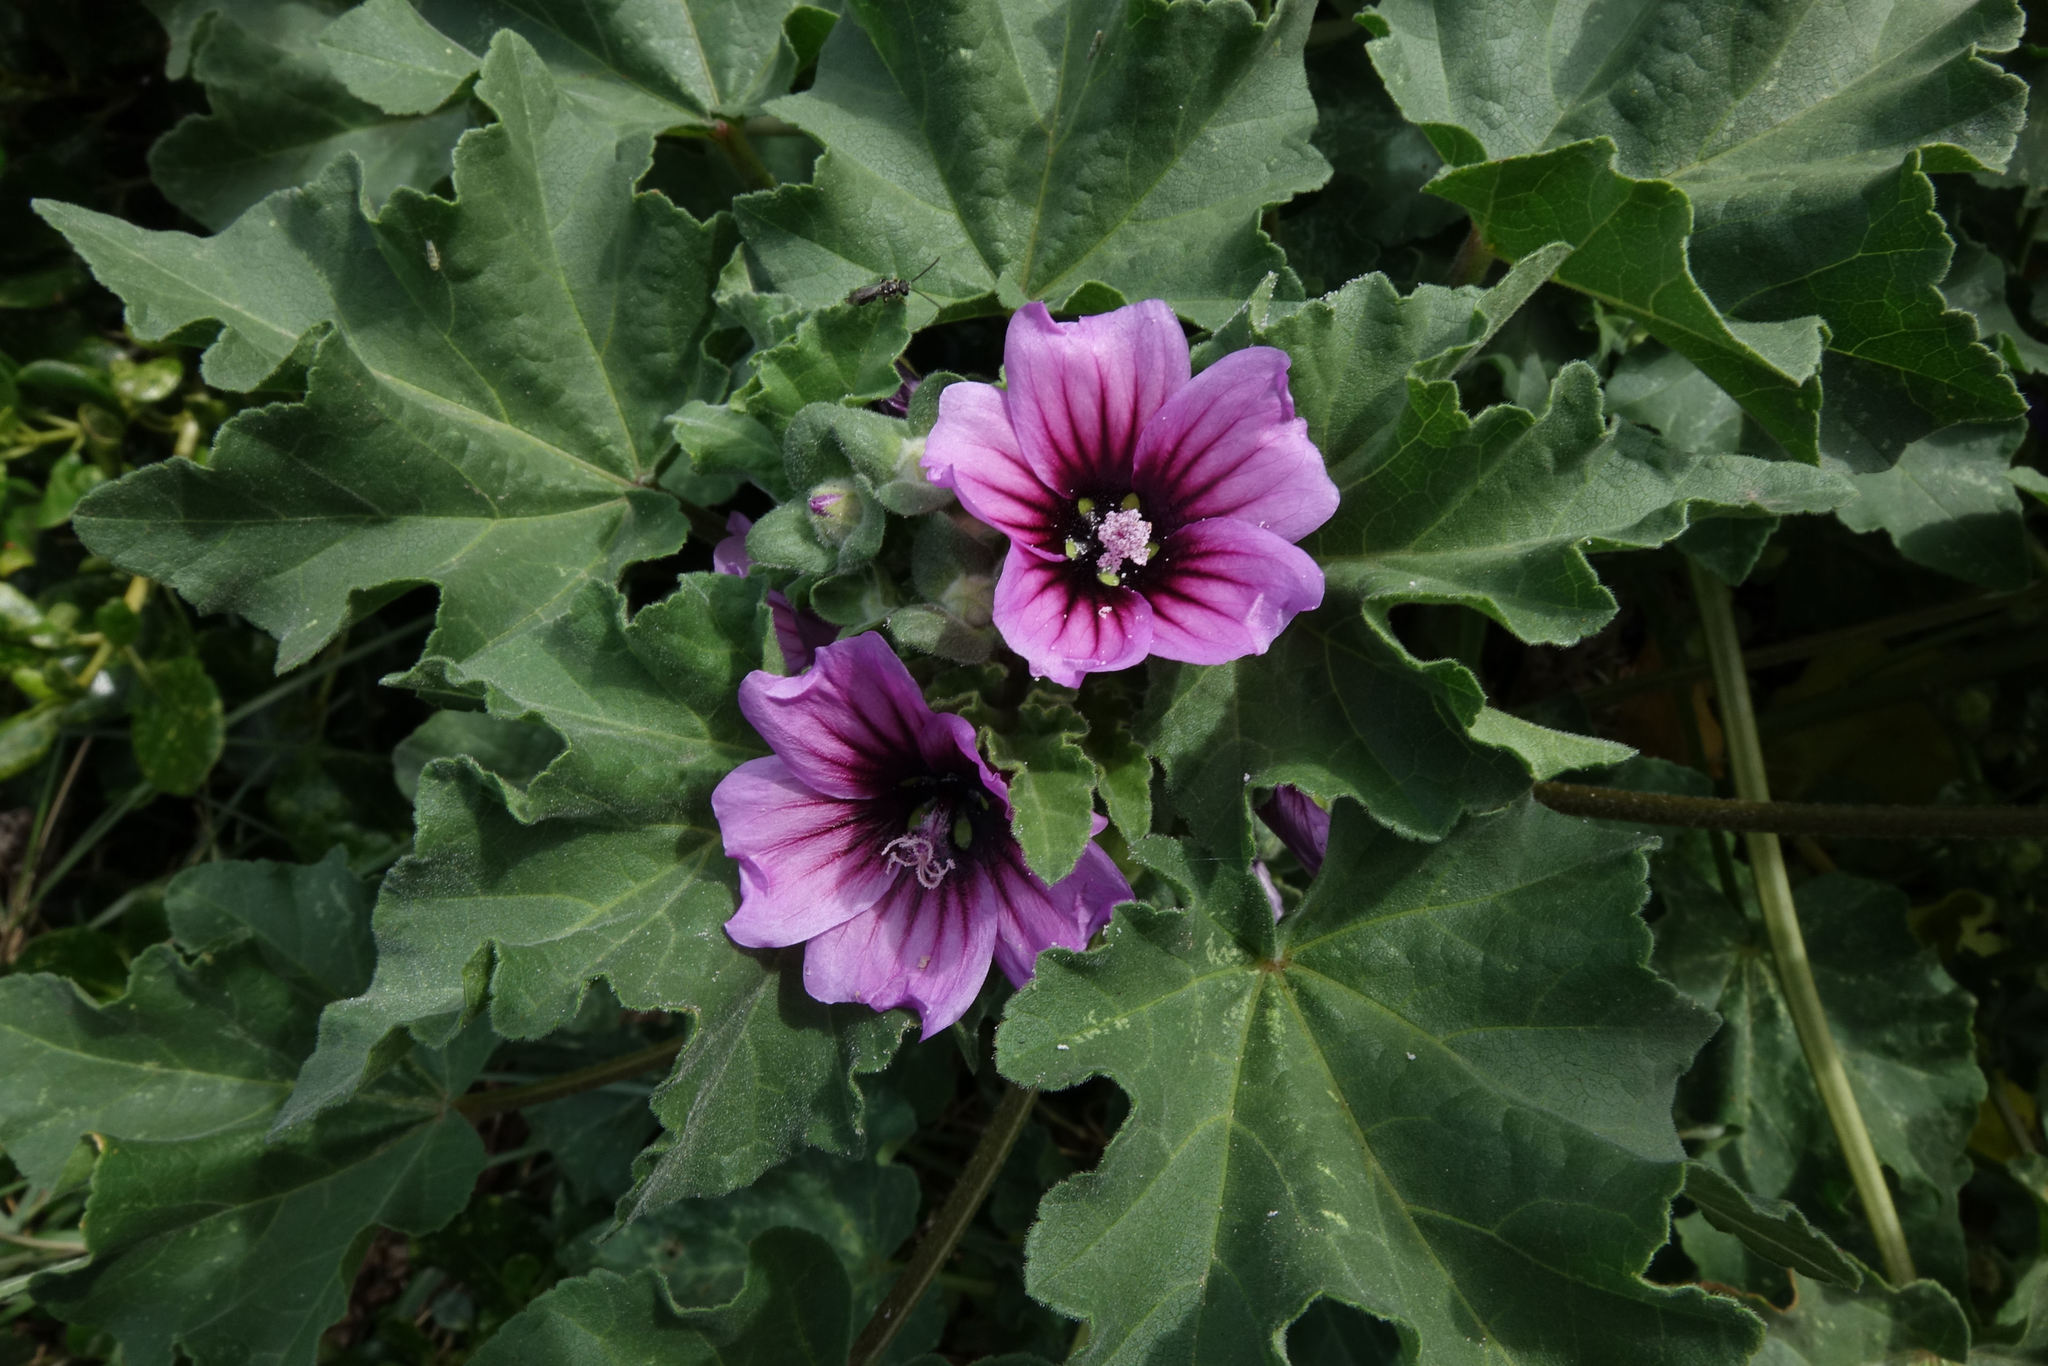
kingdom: Plantae
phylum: Tracheophyta
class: Magnoliopsida
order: Malvales
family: Malvaceae
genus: Malva
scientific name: Malva arborea
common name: Tree mallow
